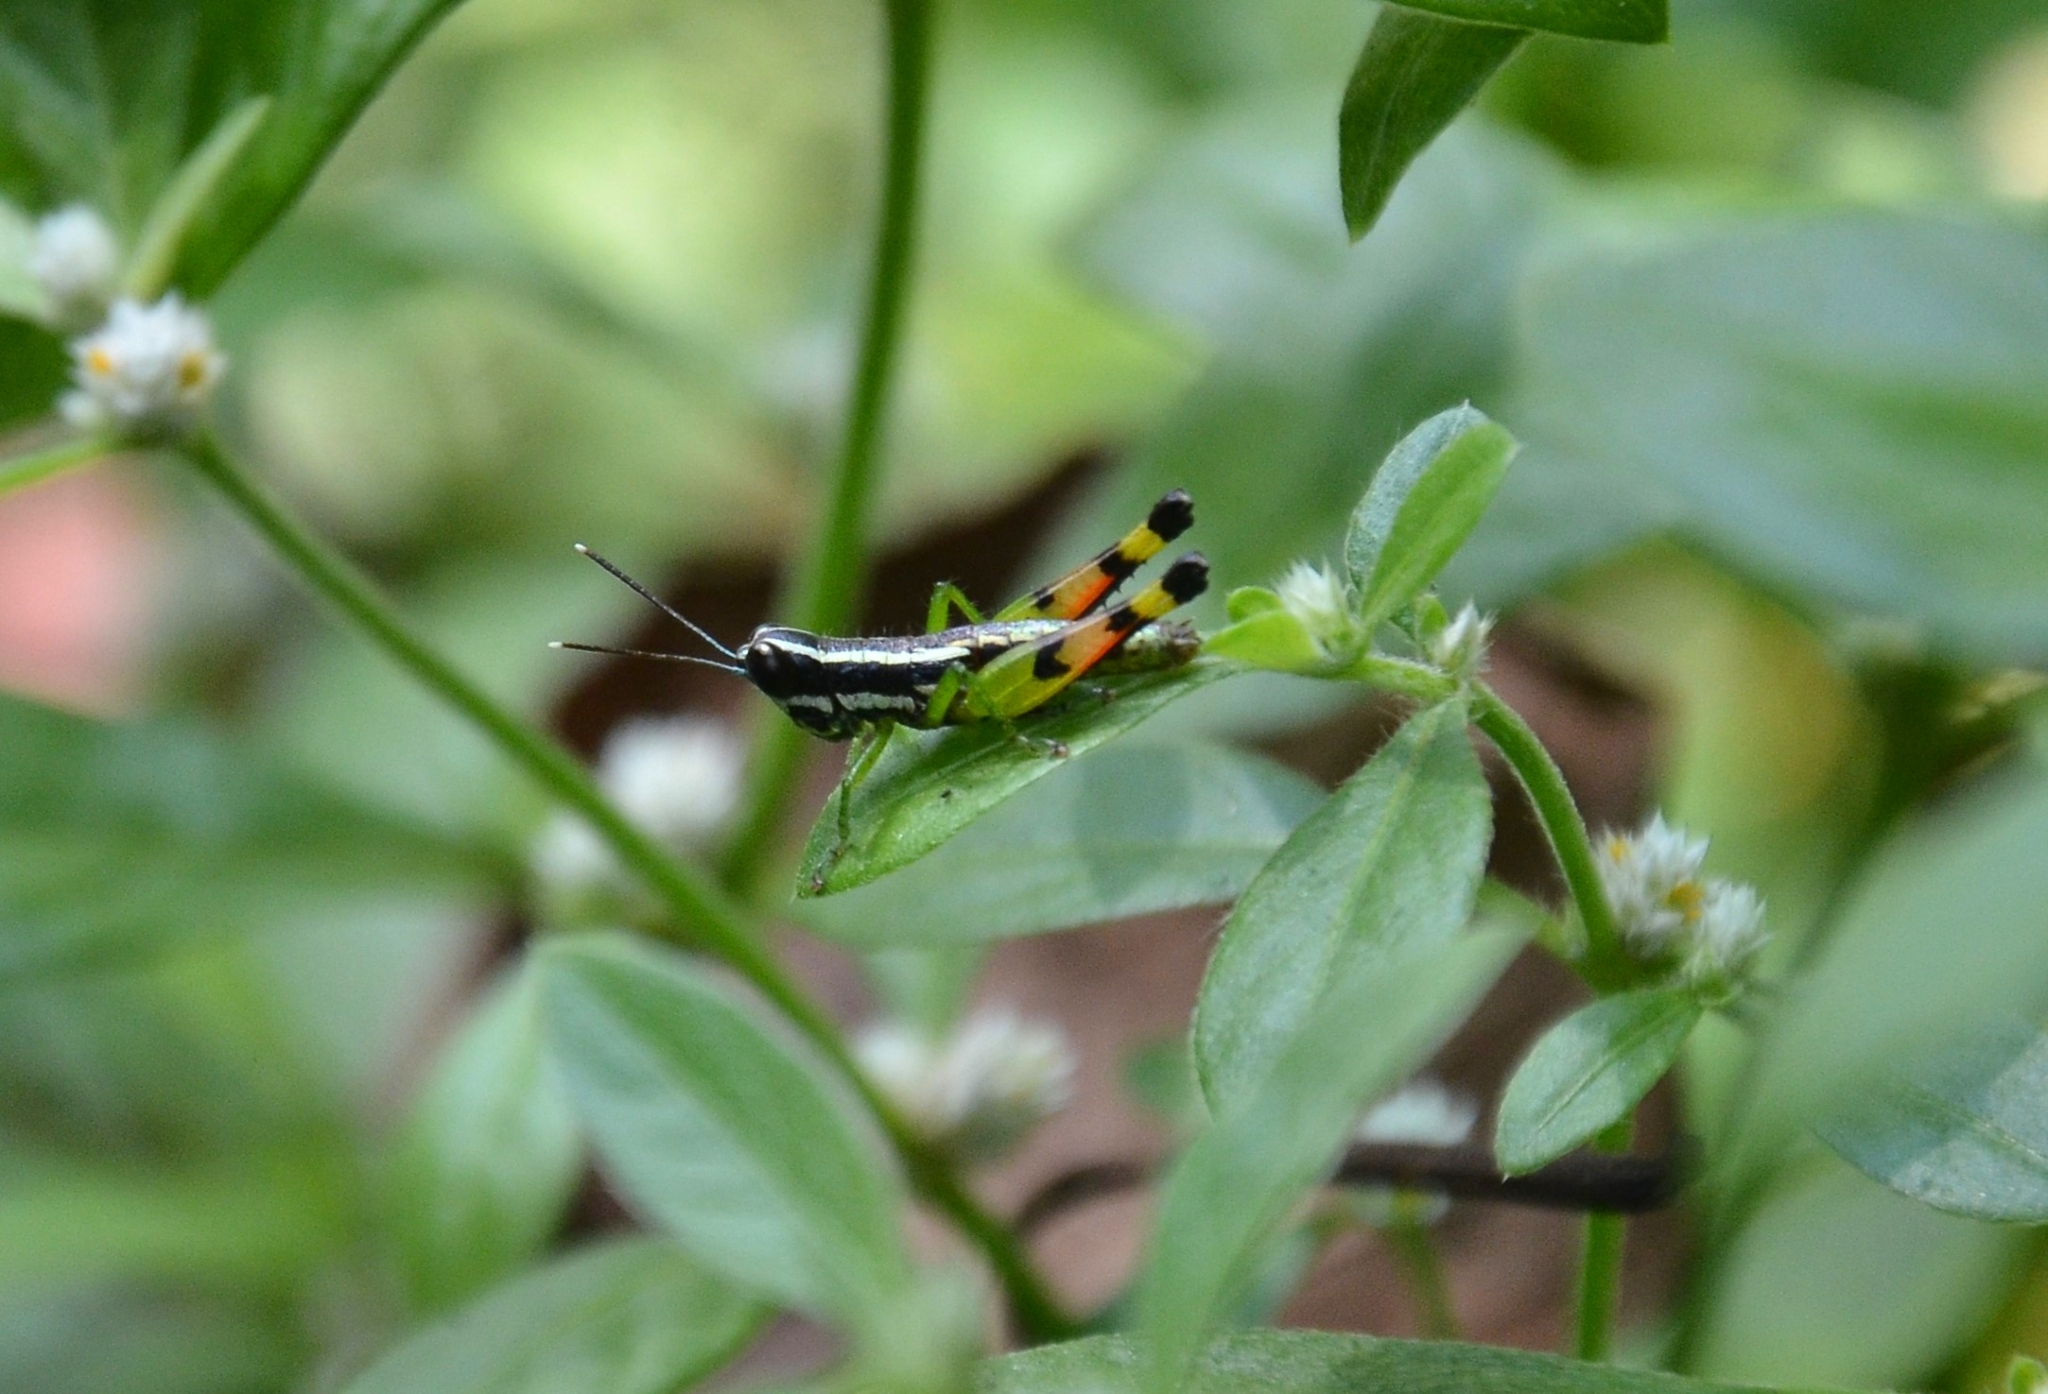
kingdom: Animalia
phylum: Arthropoda
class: Insecta
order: Orthoptera
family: Acrididae
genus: Chitaura
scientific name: Chitaura indica
